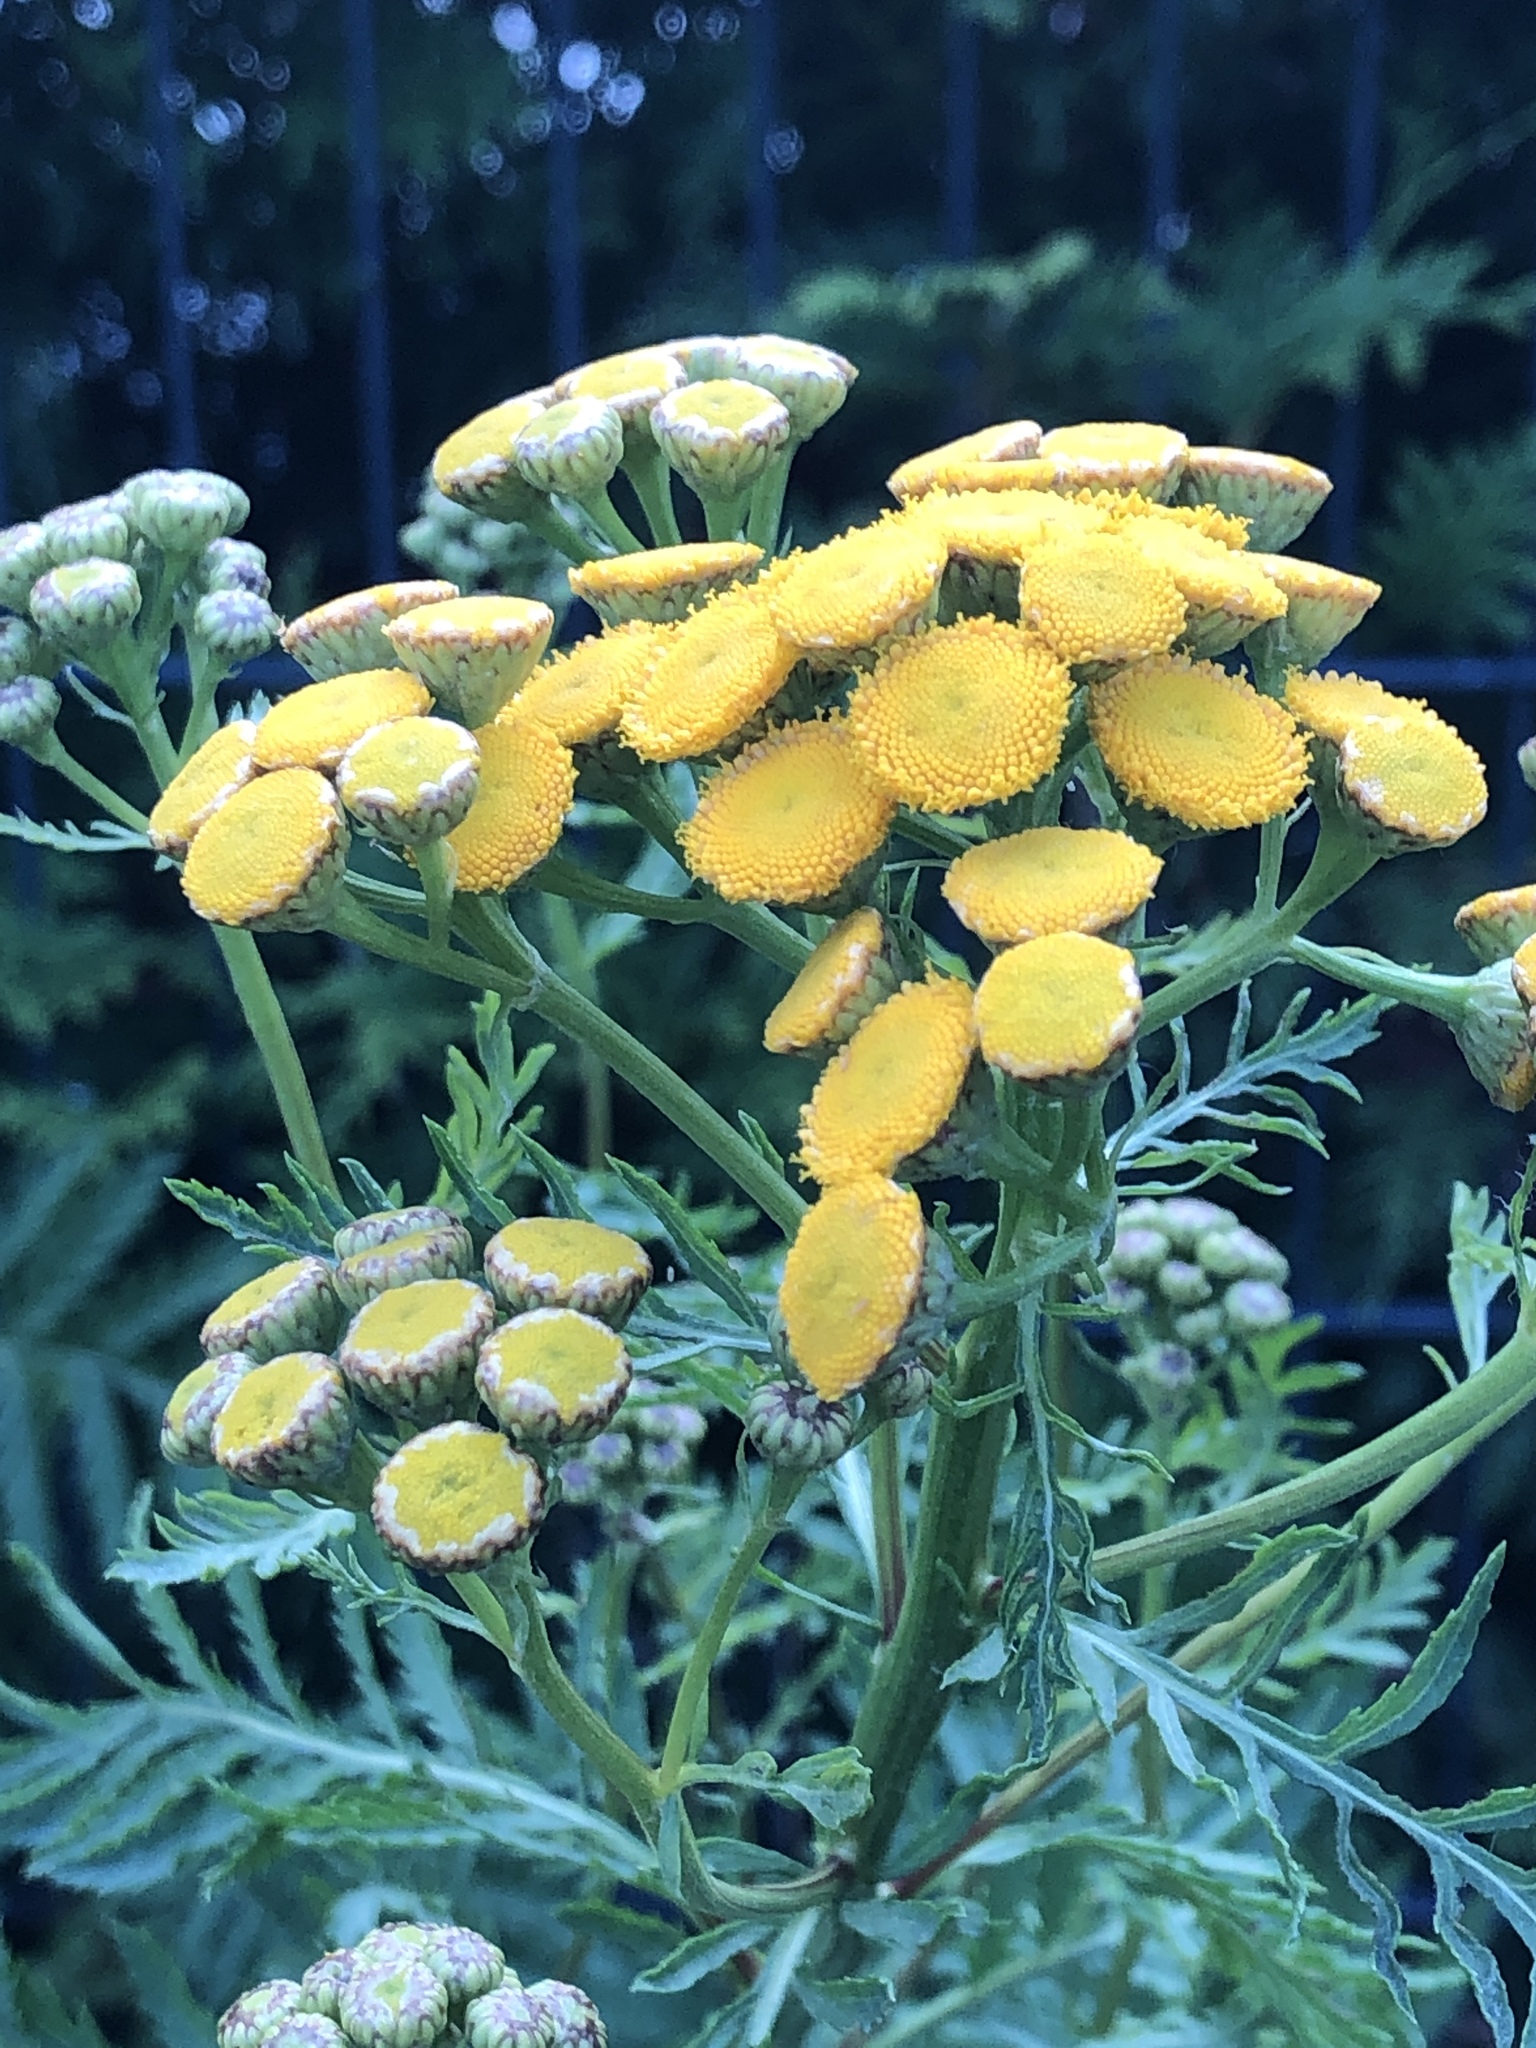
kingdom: Plantae
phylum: Tracheophyta
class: Magnoliopsida
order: Asterales
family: Asteraceae
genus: Tanacetum
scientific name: Tanacetum vulgare
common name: Common tansy
